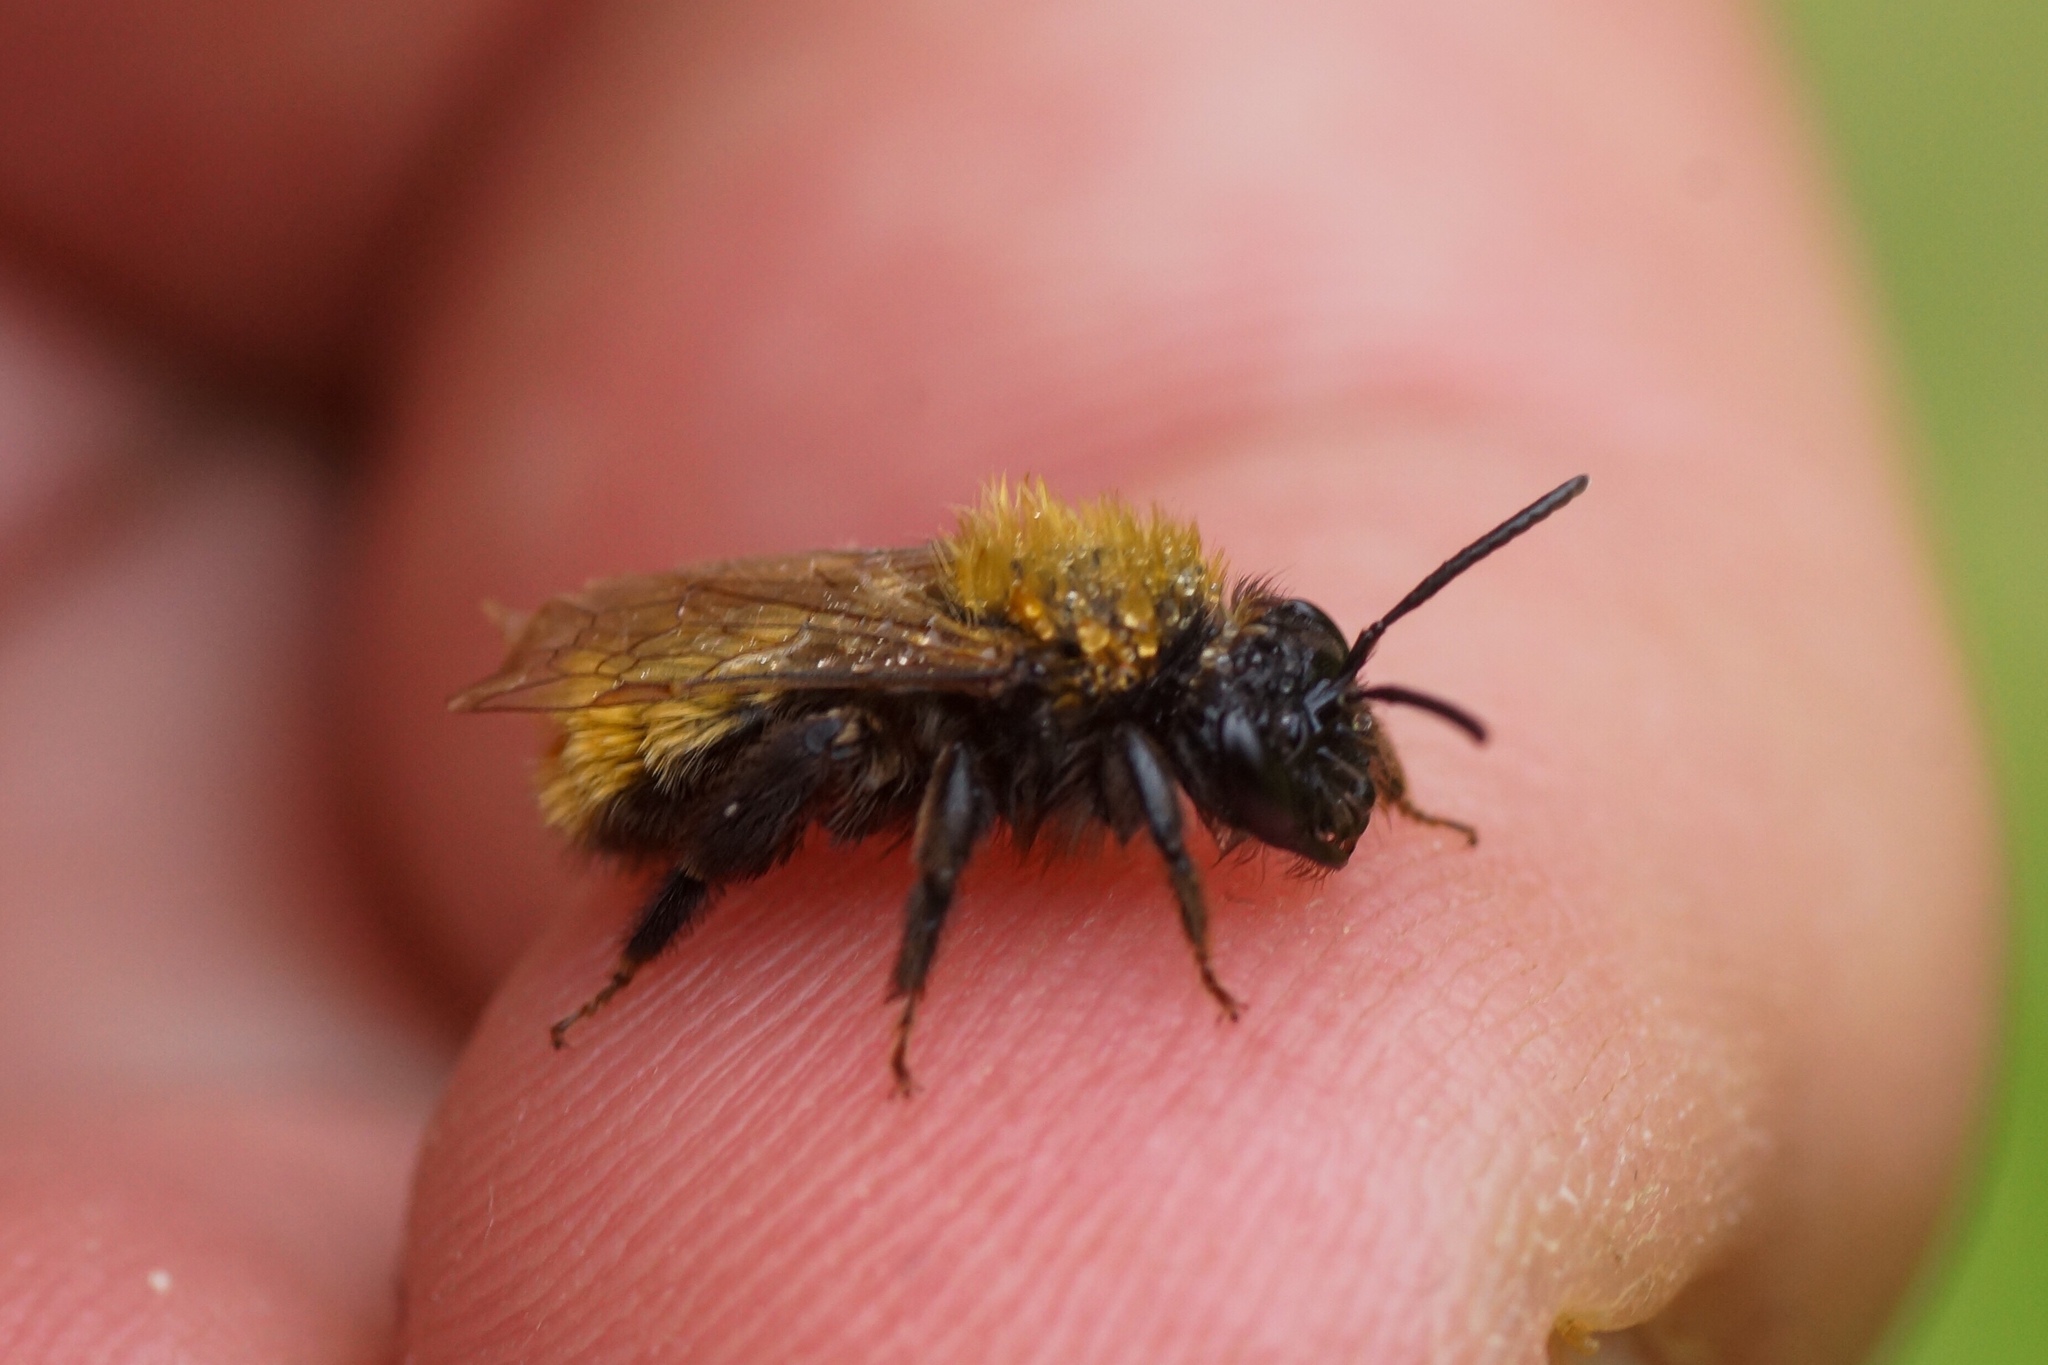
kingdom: Animalia
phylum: Arthropoda
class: Insecta
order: Hymenoptera
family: Andrenidae
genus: Andrena
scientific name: Andrena fulva
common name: Tawny mining bee
